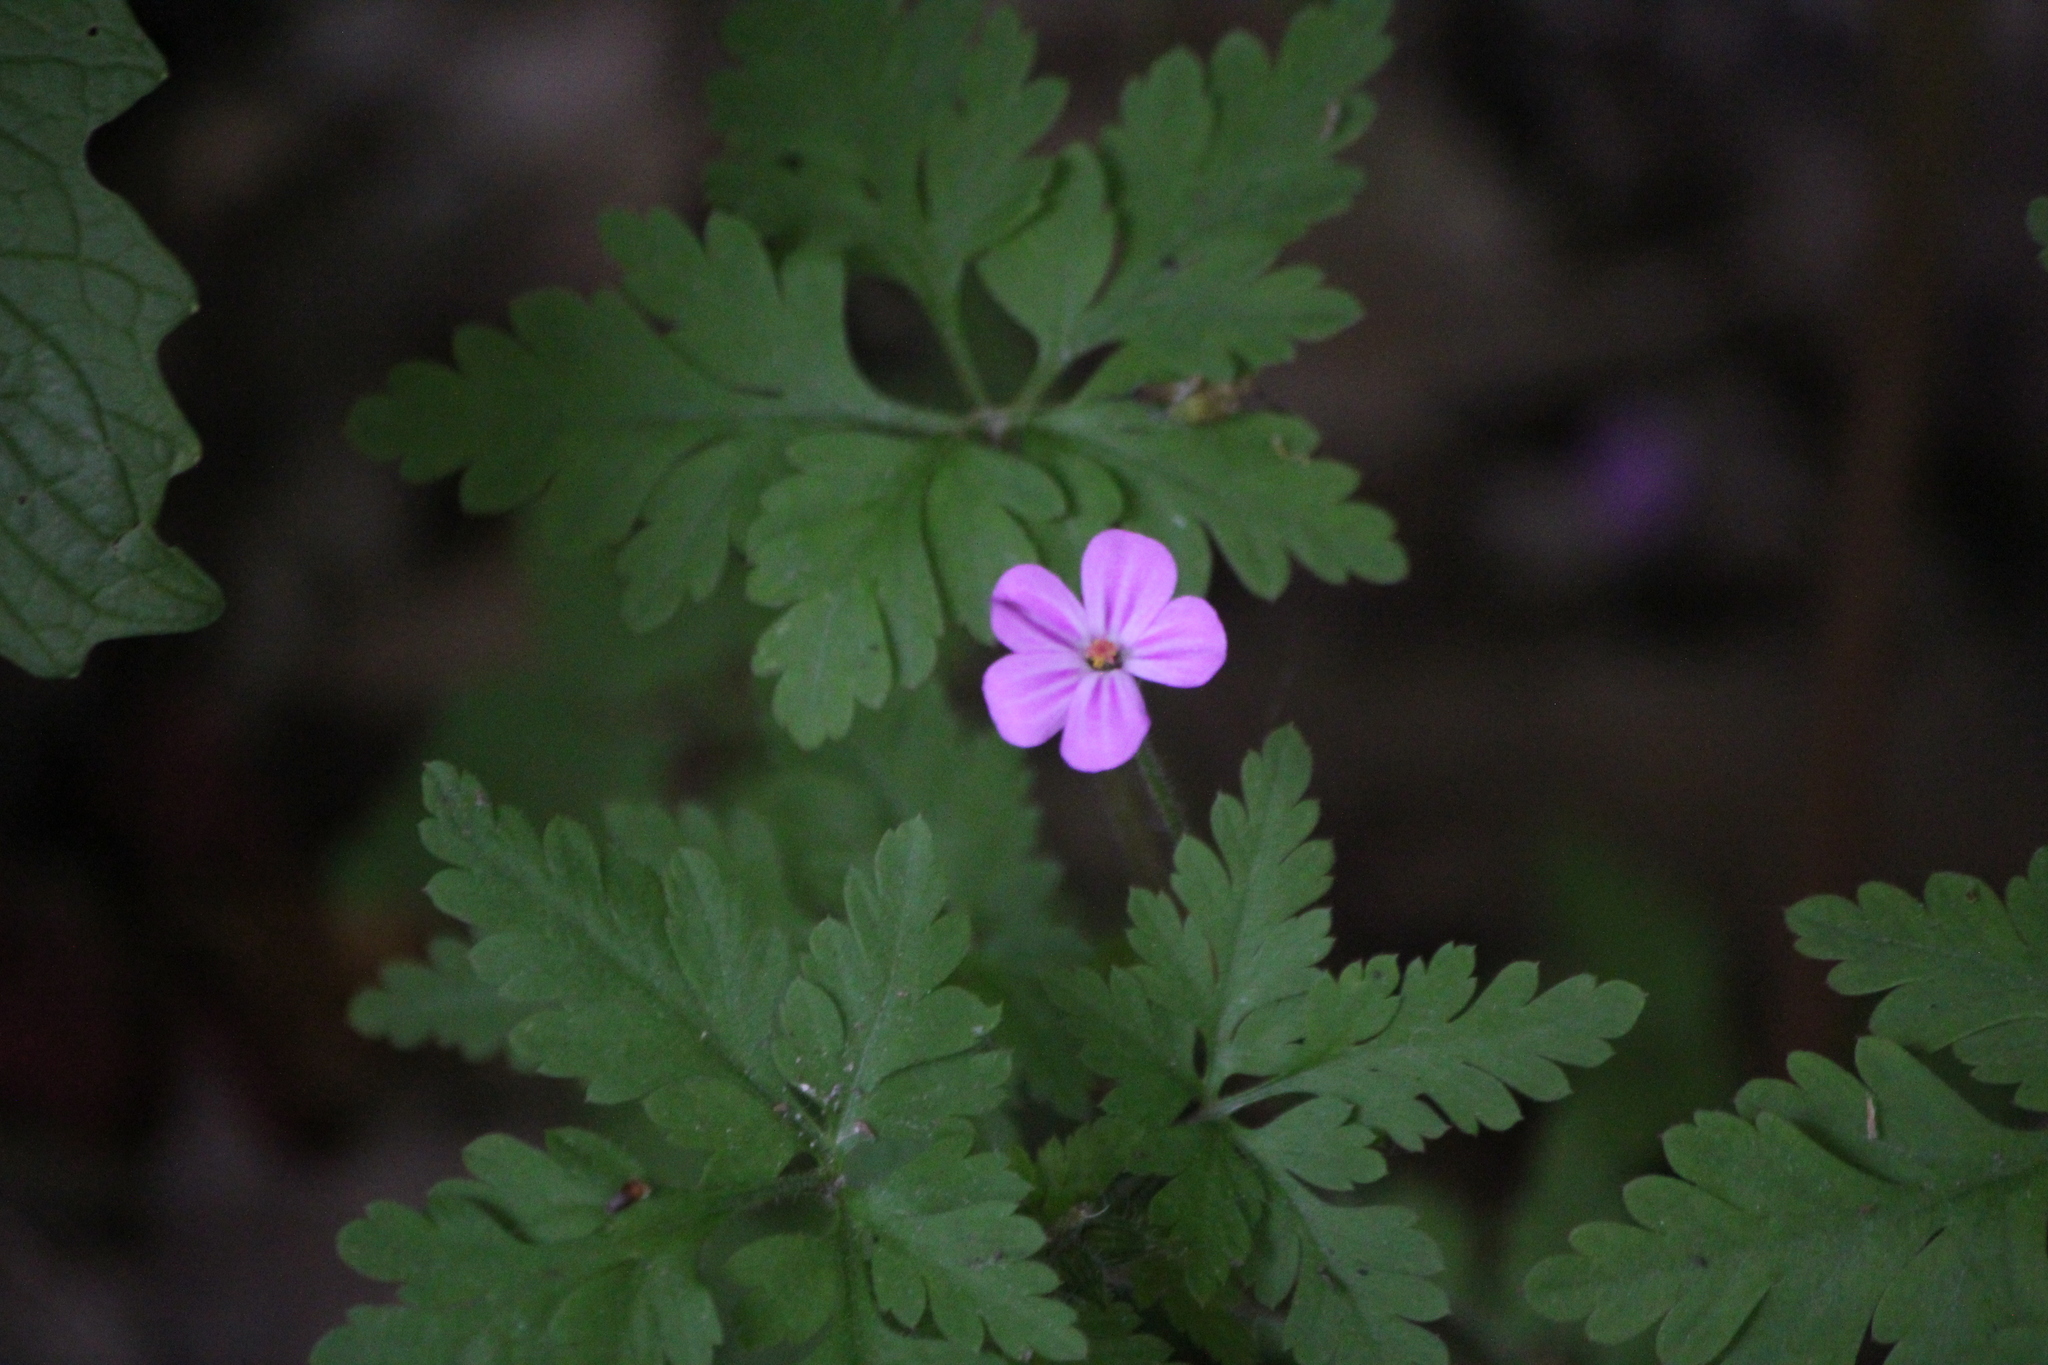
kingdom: Plantae
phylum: Tracheophyta
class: Magnoliopsida
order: Geraniales
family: Geraniaceae
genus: Geranium
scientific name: Geranium robertianum
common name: Herb-robert
